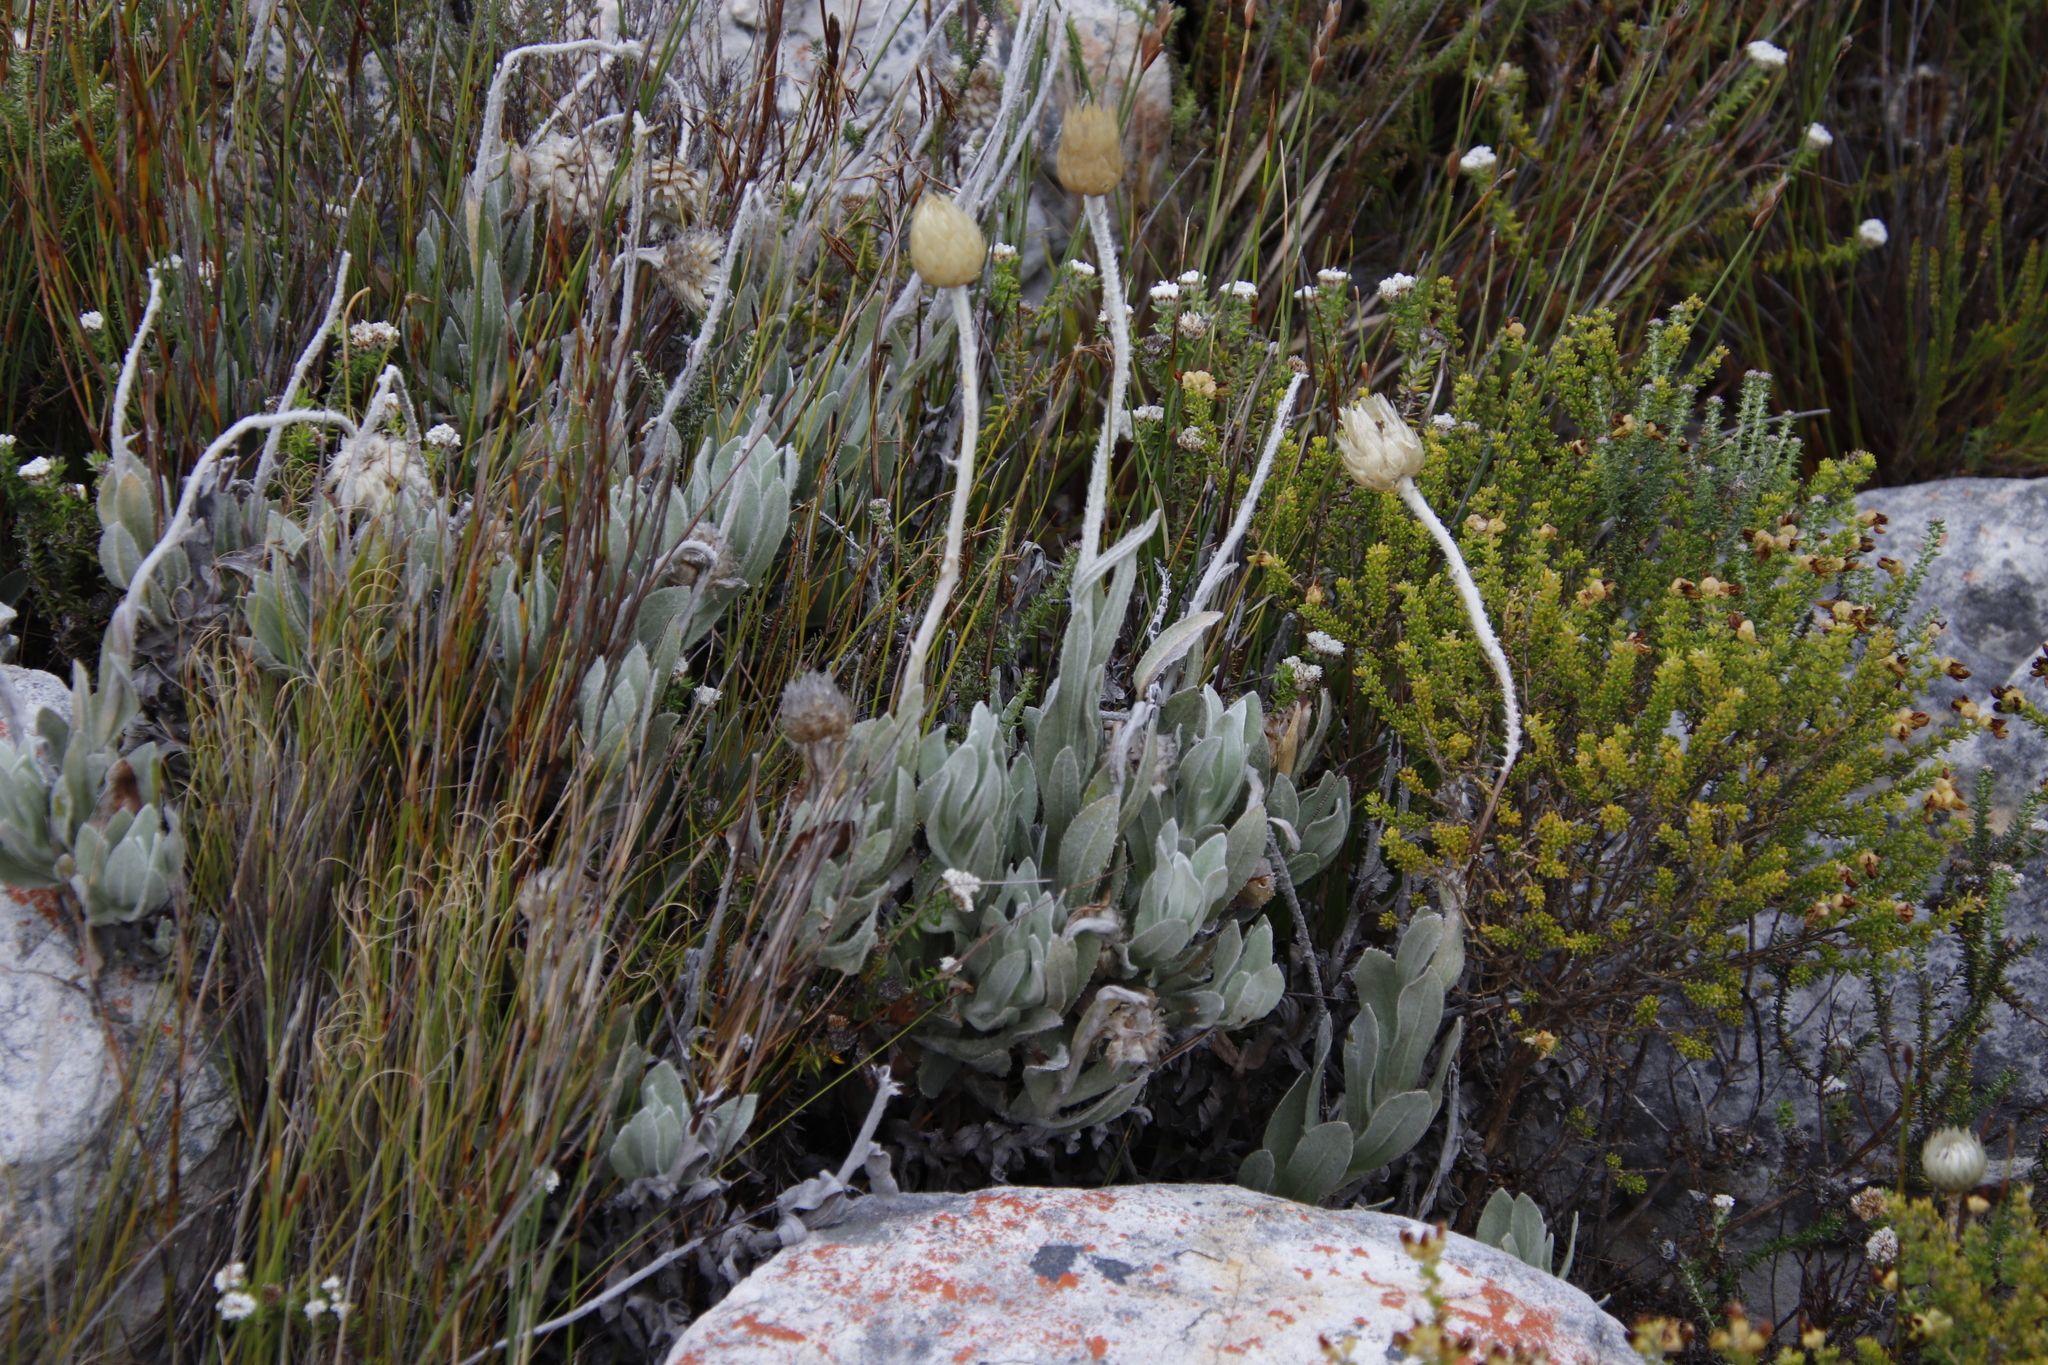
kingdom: Plantae
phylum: Tracheophyta
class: Magnoliopsida
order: Asterales
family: Asteraceae
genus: Syncarpha
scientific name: Syncarpha speciosissima
